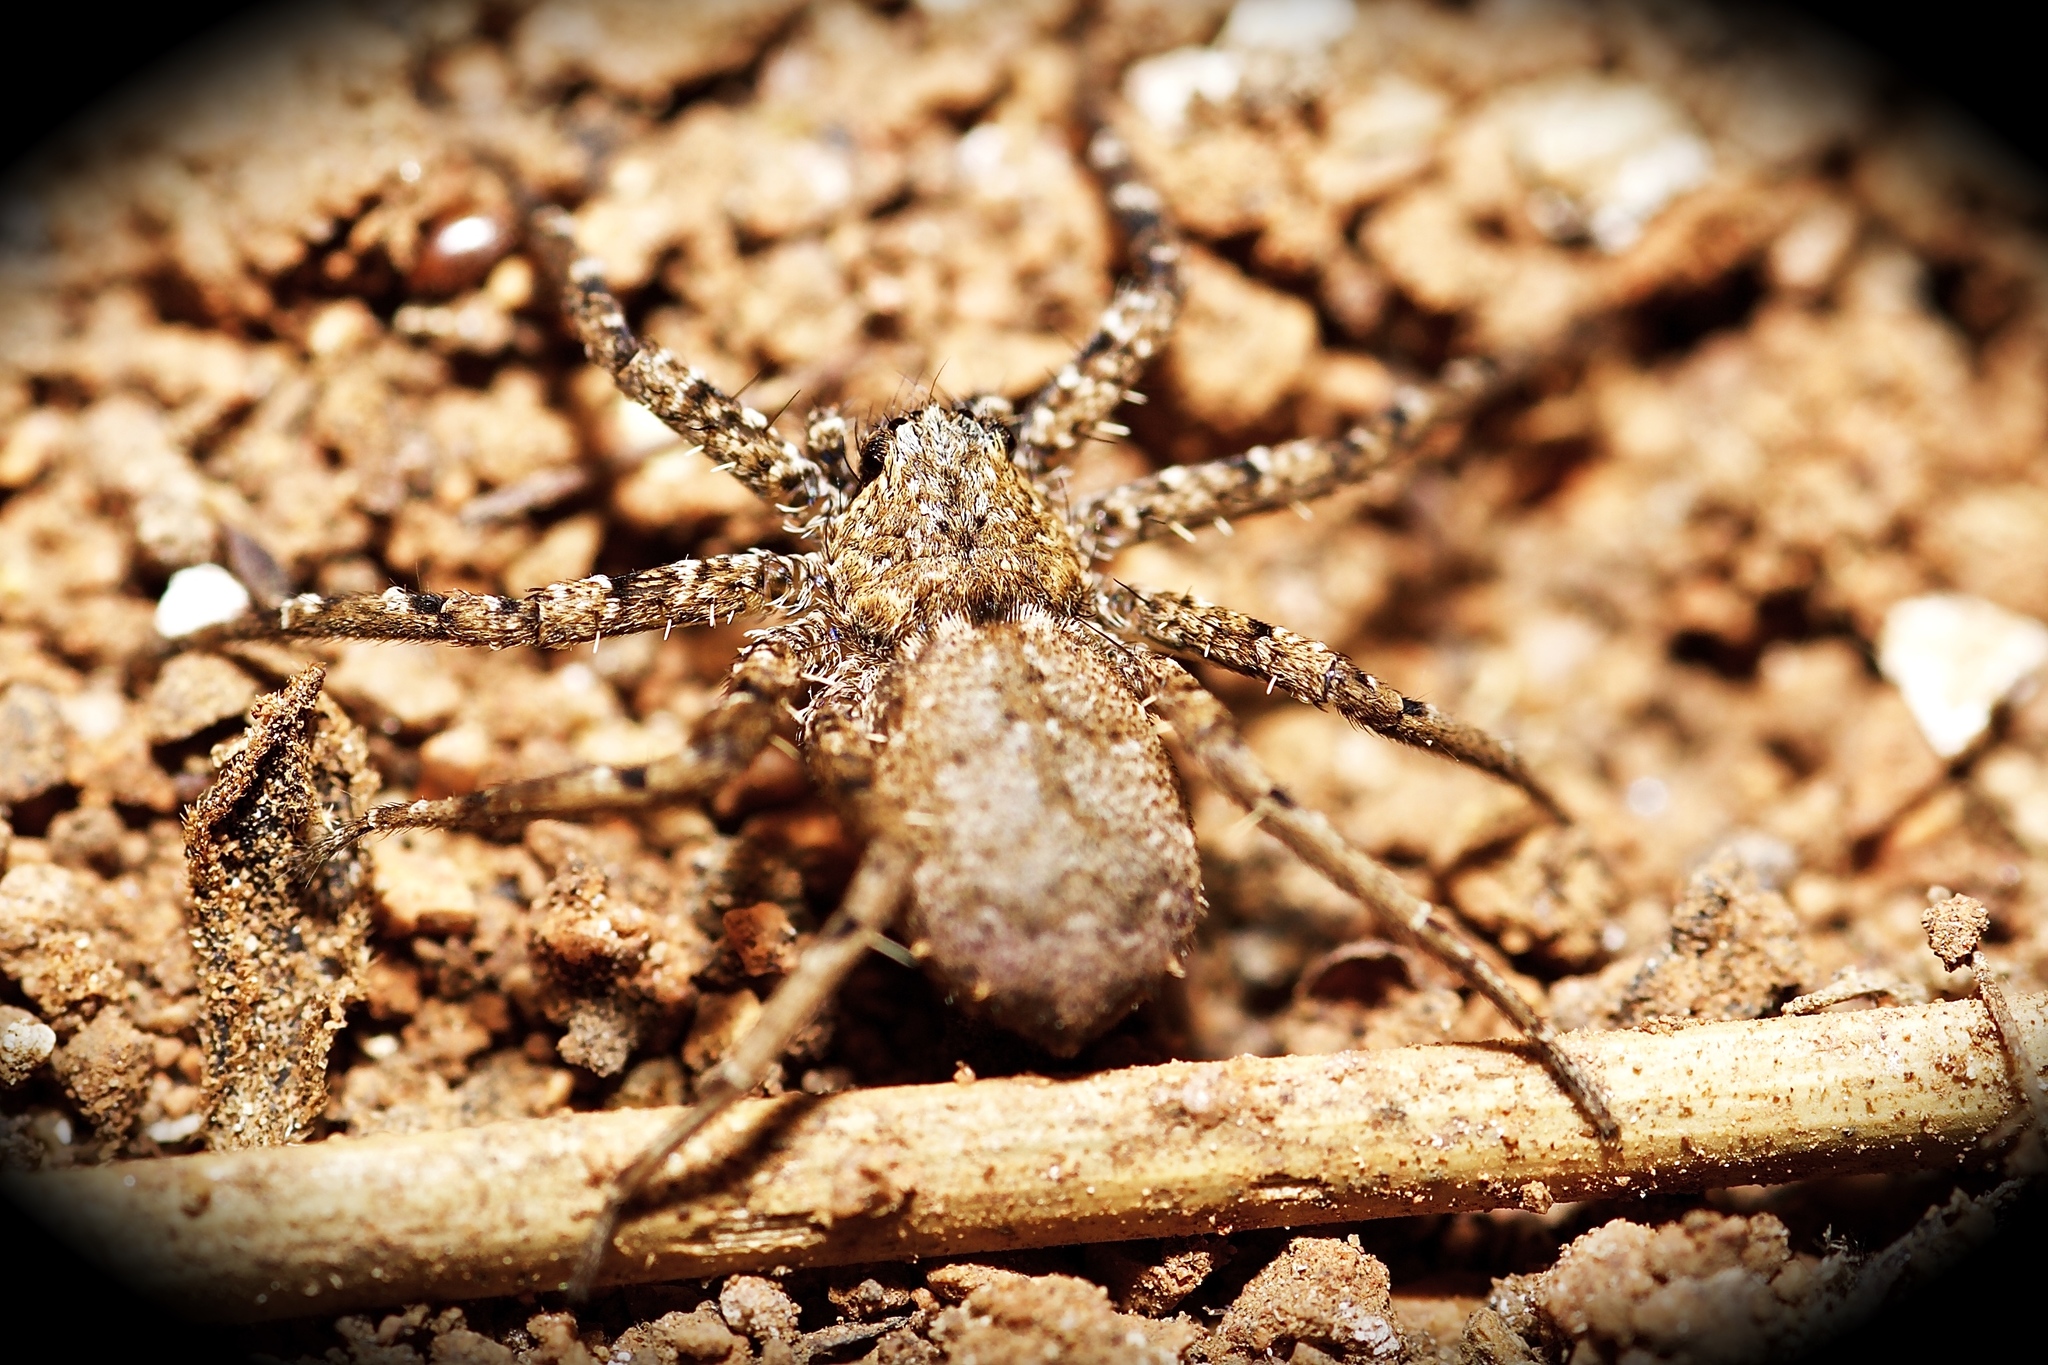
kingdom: Animalia
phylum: Arthropoda
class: Arachnida
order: Araneae
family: Selenopidae
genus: Selenops
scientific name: Selenops
